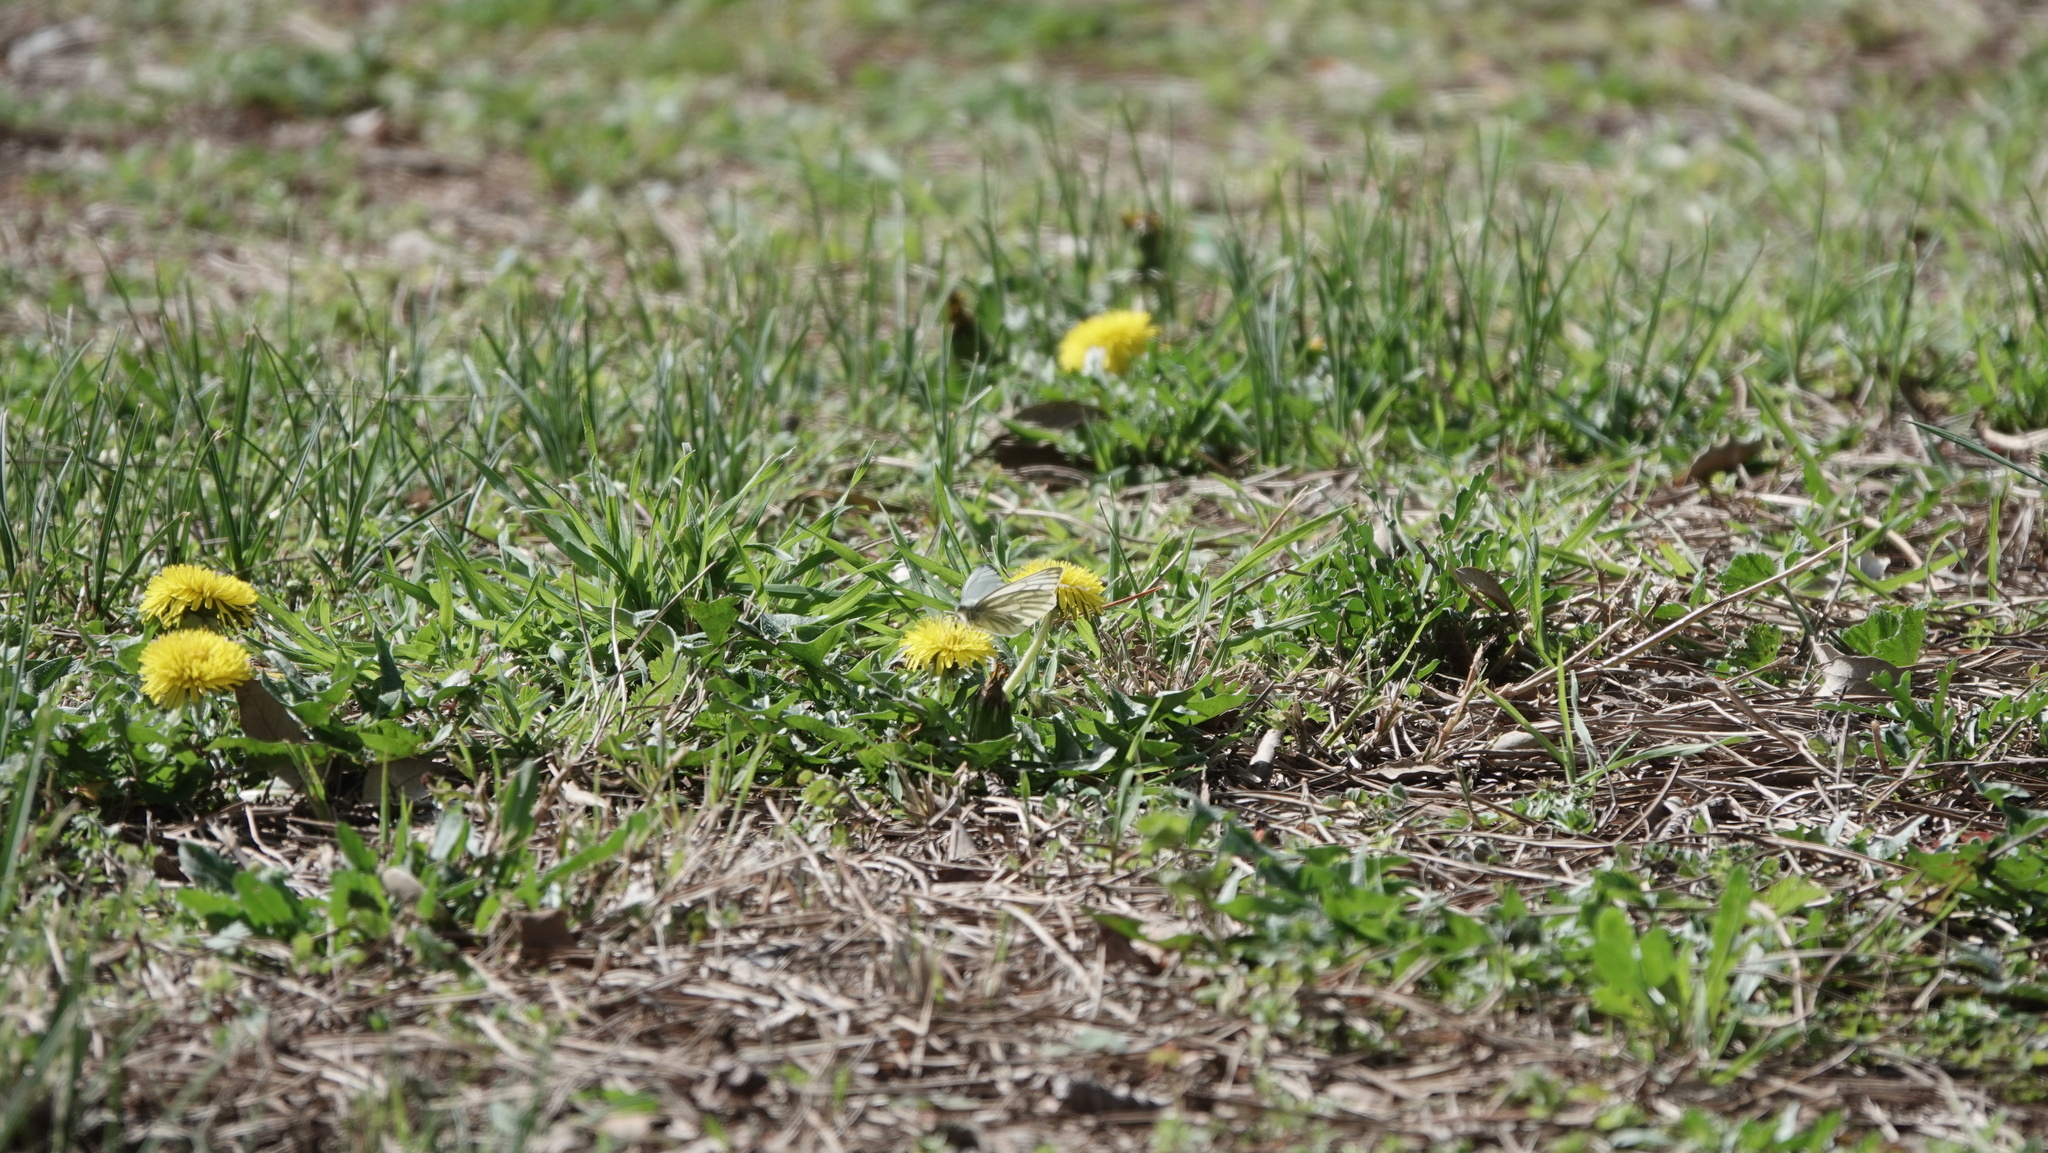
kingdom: Animalia
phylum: Arthropoda
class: Insecta
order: Lepidoptera
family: Pieridae
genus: Pieris
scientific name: Pieris napi
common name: Green-veined white
